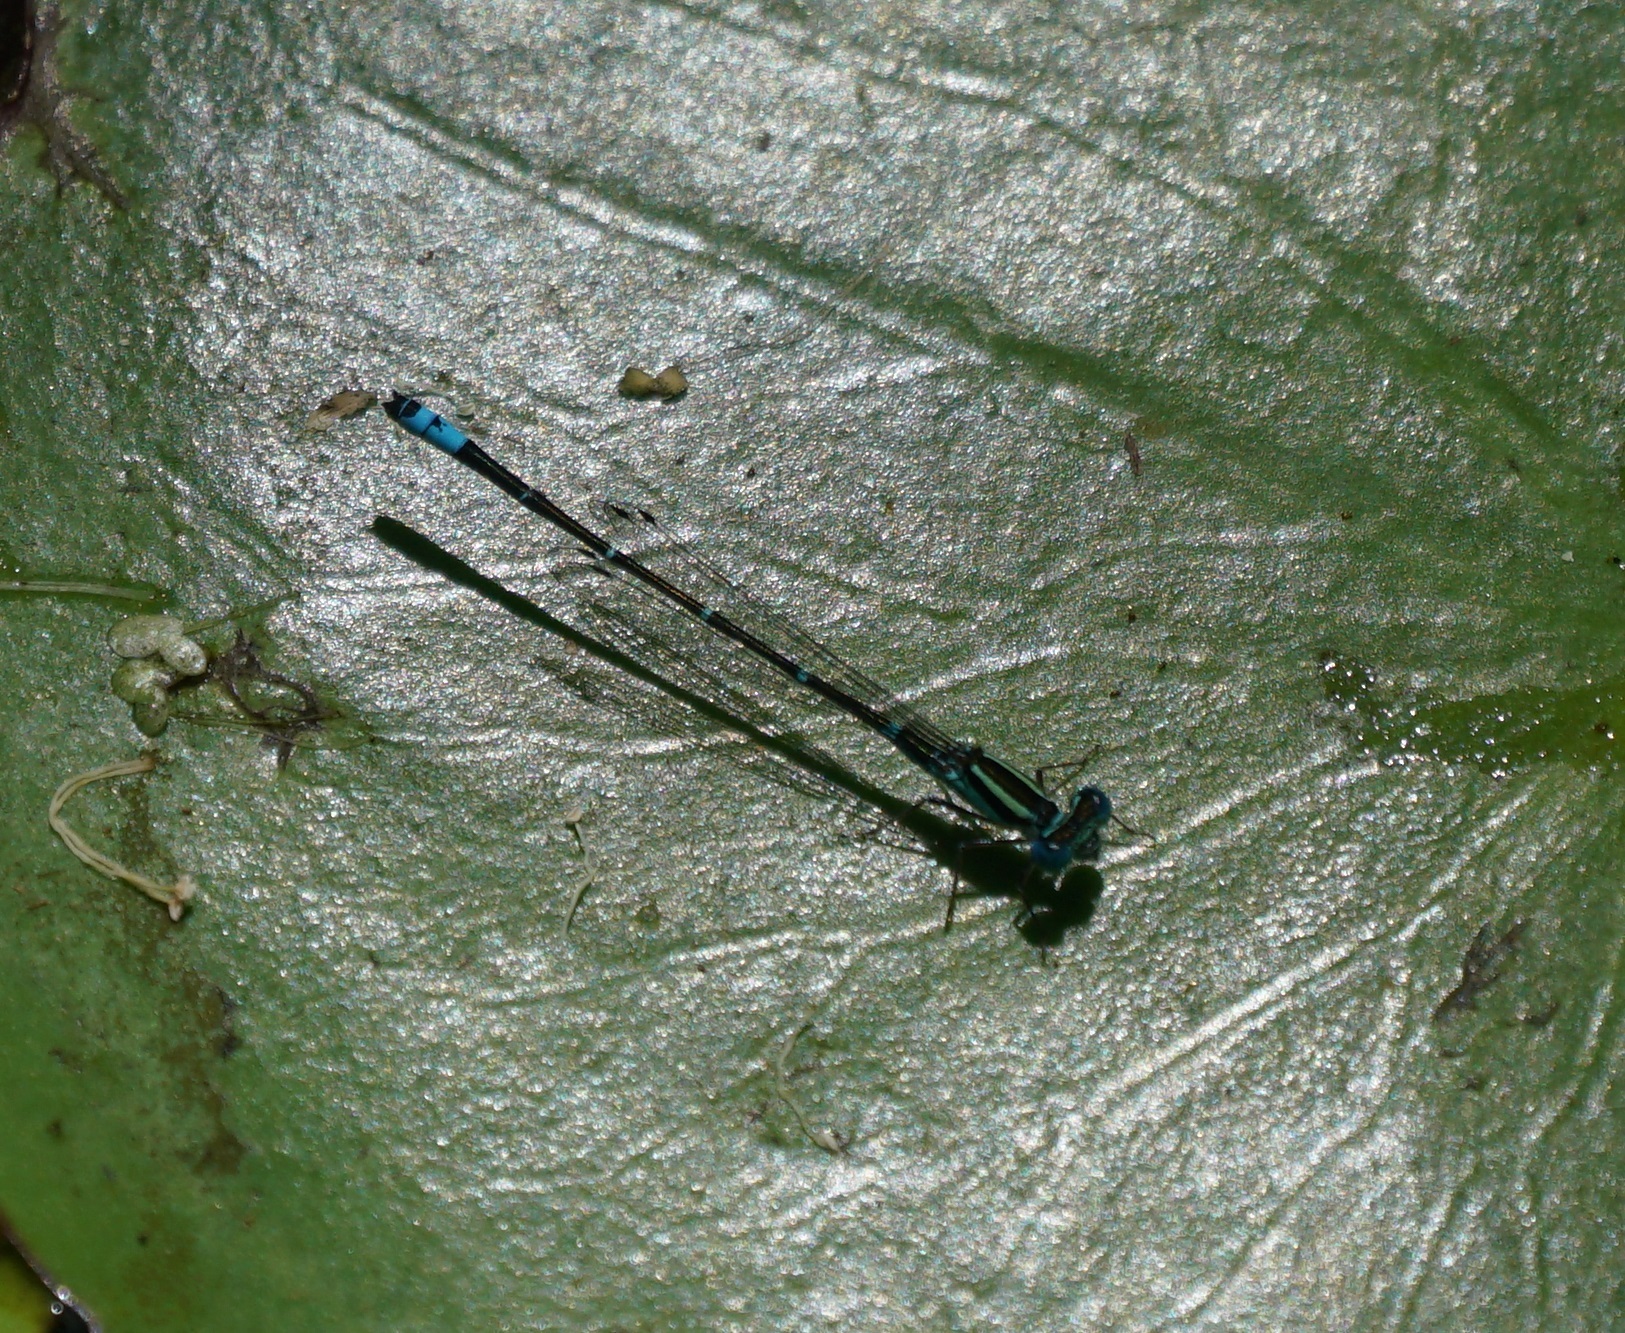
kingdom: Animalia
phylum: Arthropoda
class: Insecta
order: Odonata
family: Coenagrionidae
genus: Austroagrion
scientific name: Austroagrion watsoni
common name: Eastern billabongfly
